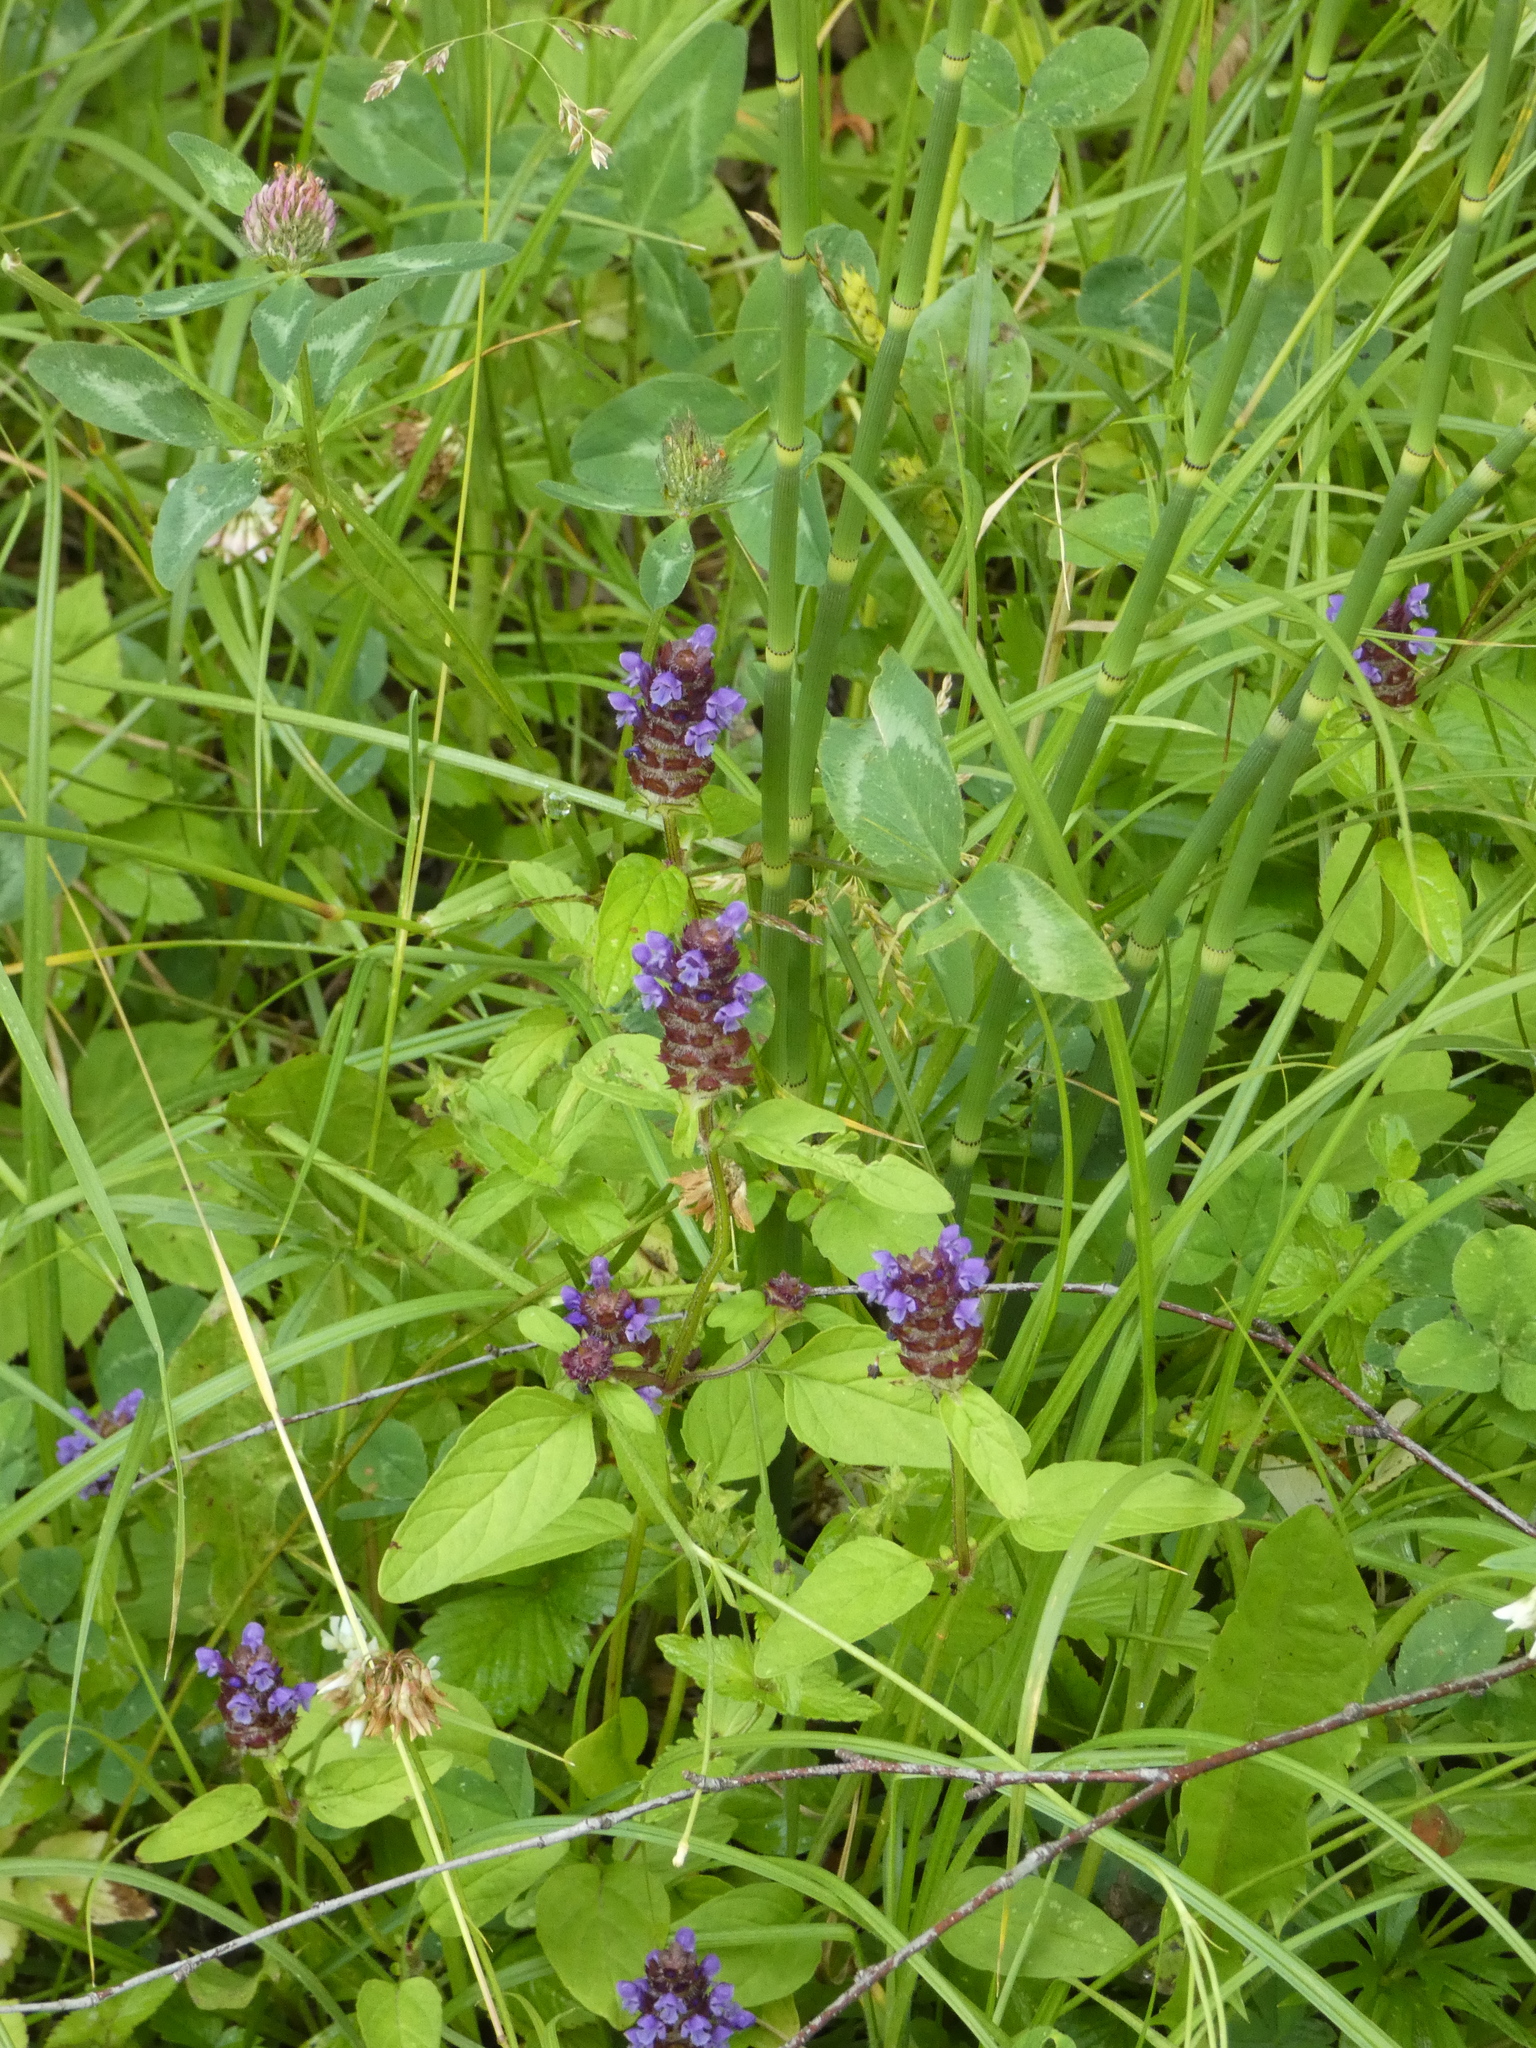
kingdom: Plantae
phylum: Tracheophyta
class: Magnoliopsida
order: Lamiales
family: Lamiaceae
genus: Prunella
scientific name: Prunella vulgaris
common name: Heal-all
